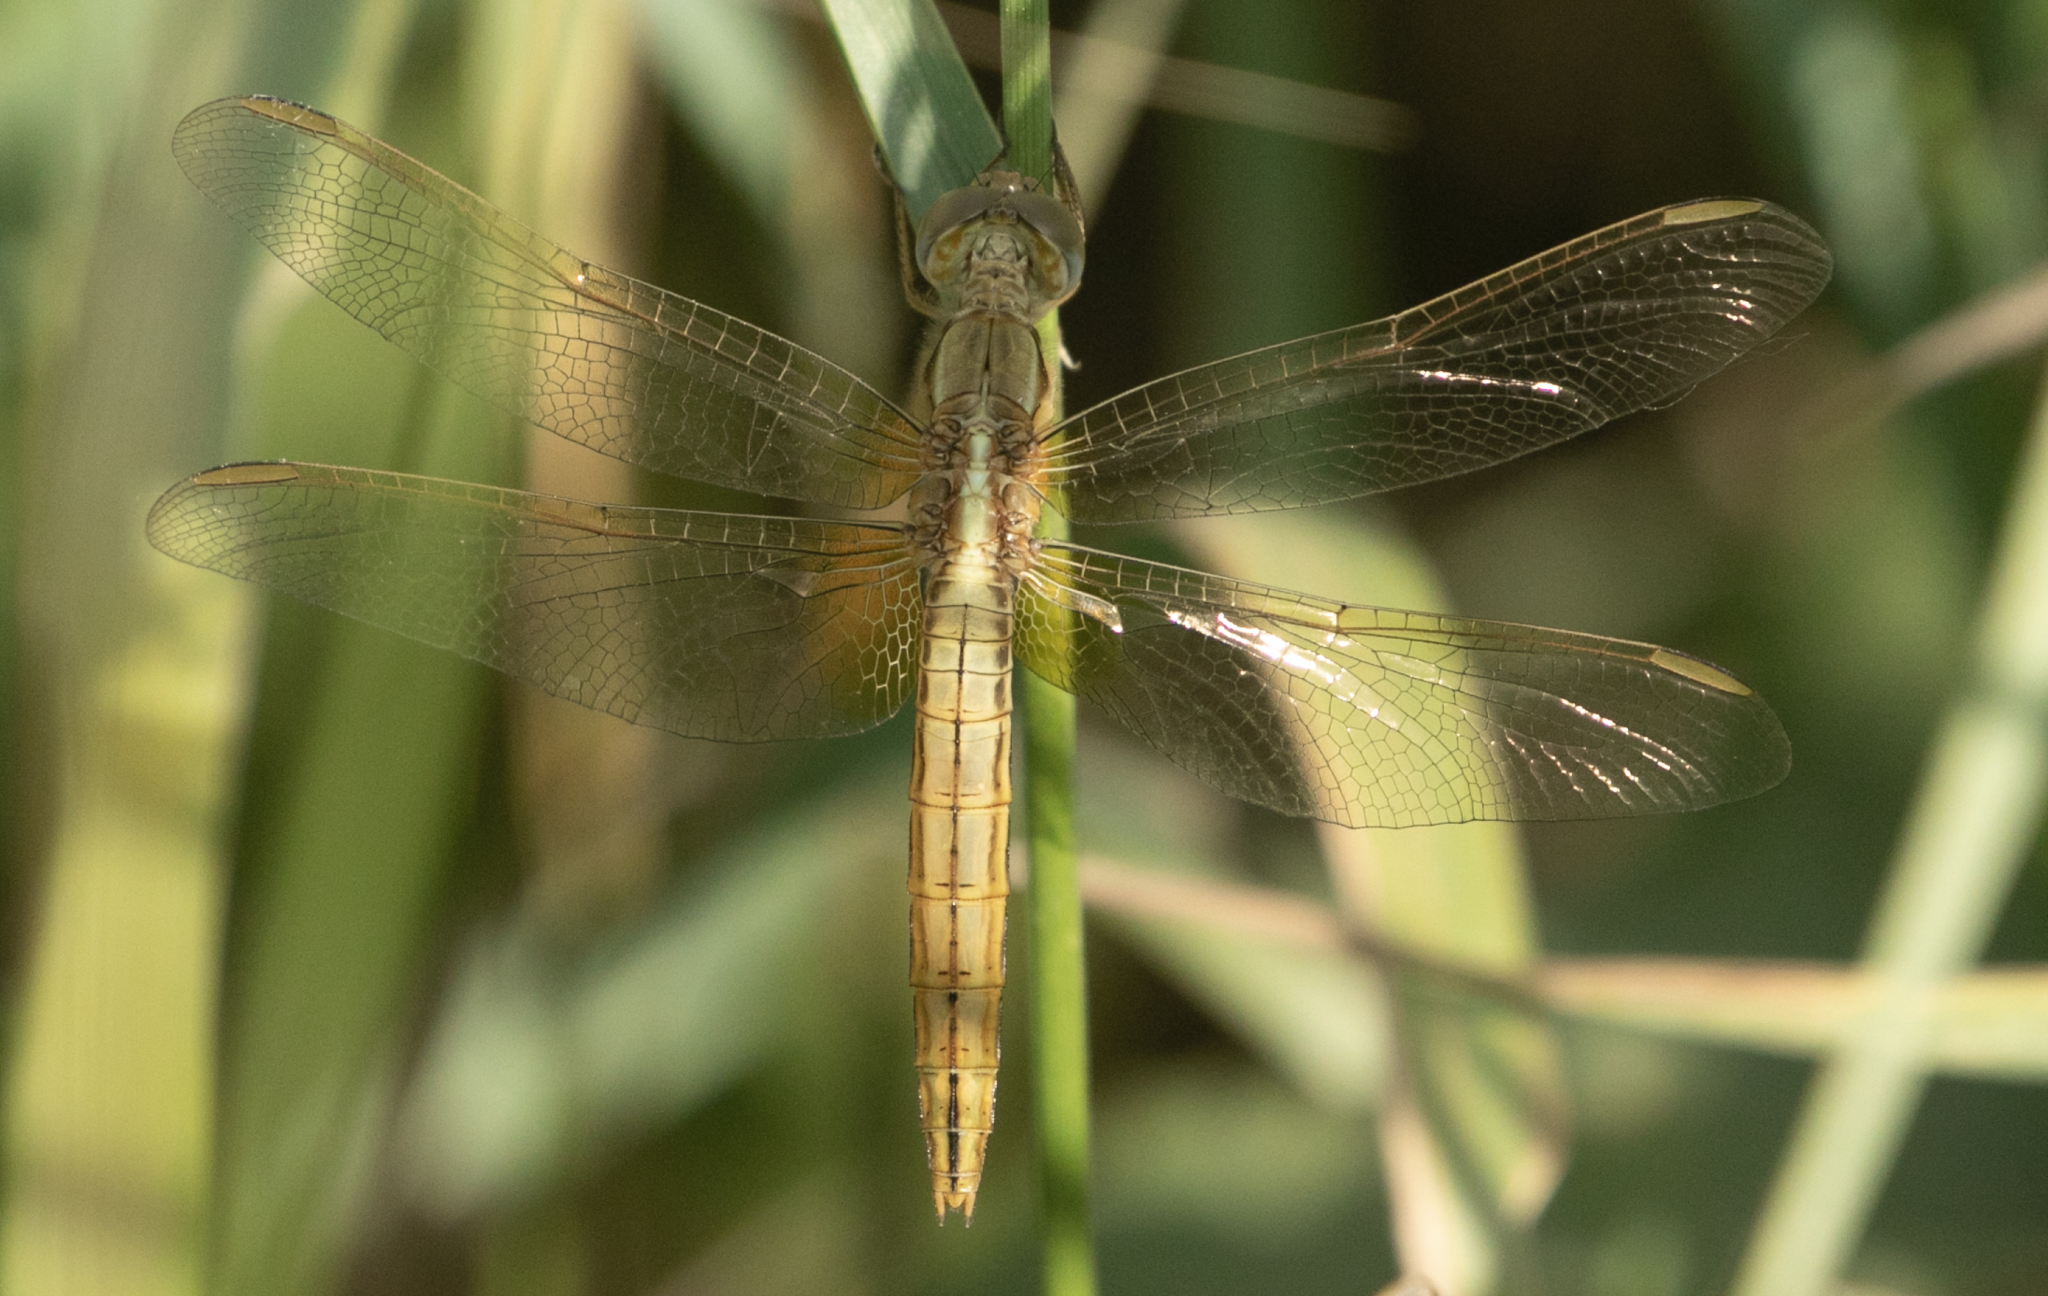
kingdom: Animalia
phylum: Arthropoda
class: Insecta
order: Odonata
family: Libellulidae
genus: Crocothemis
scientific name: Crocothemis erythraea
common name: Scarlet dragonfly
